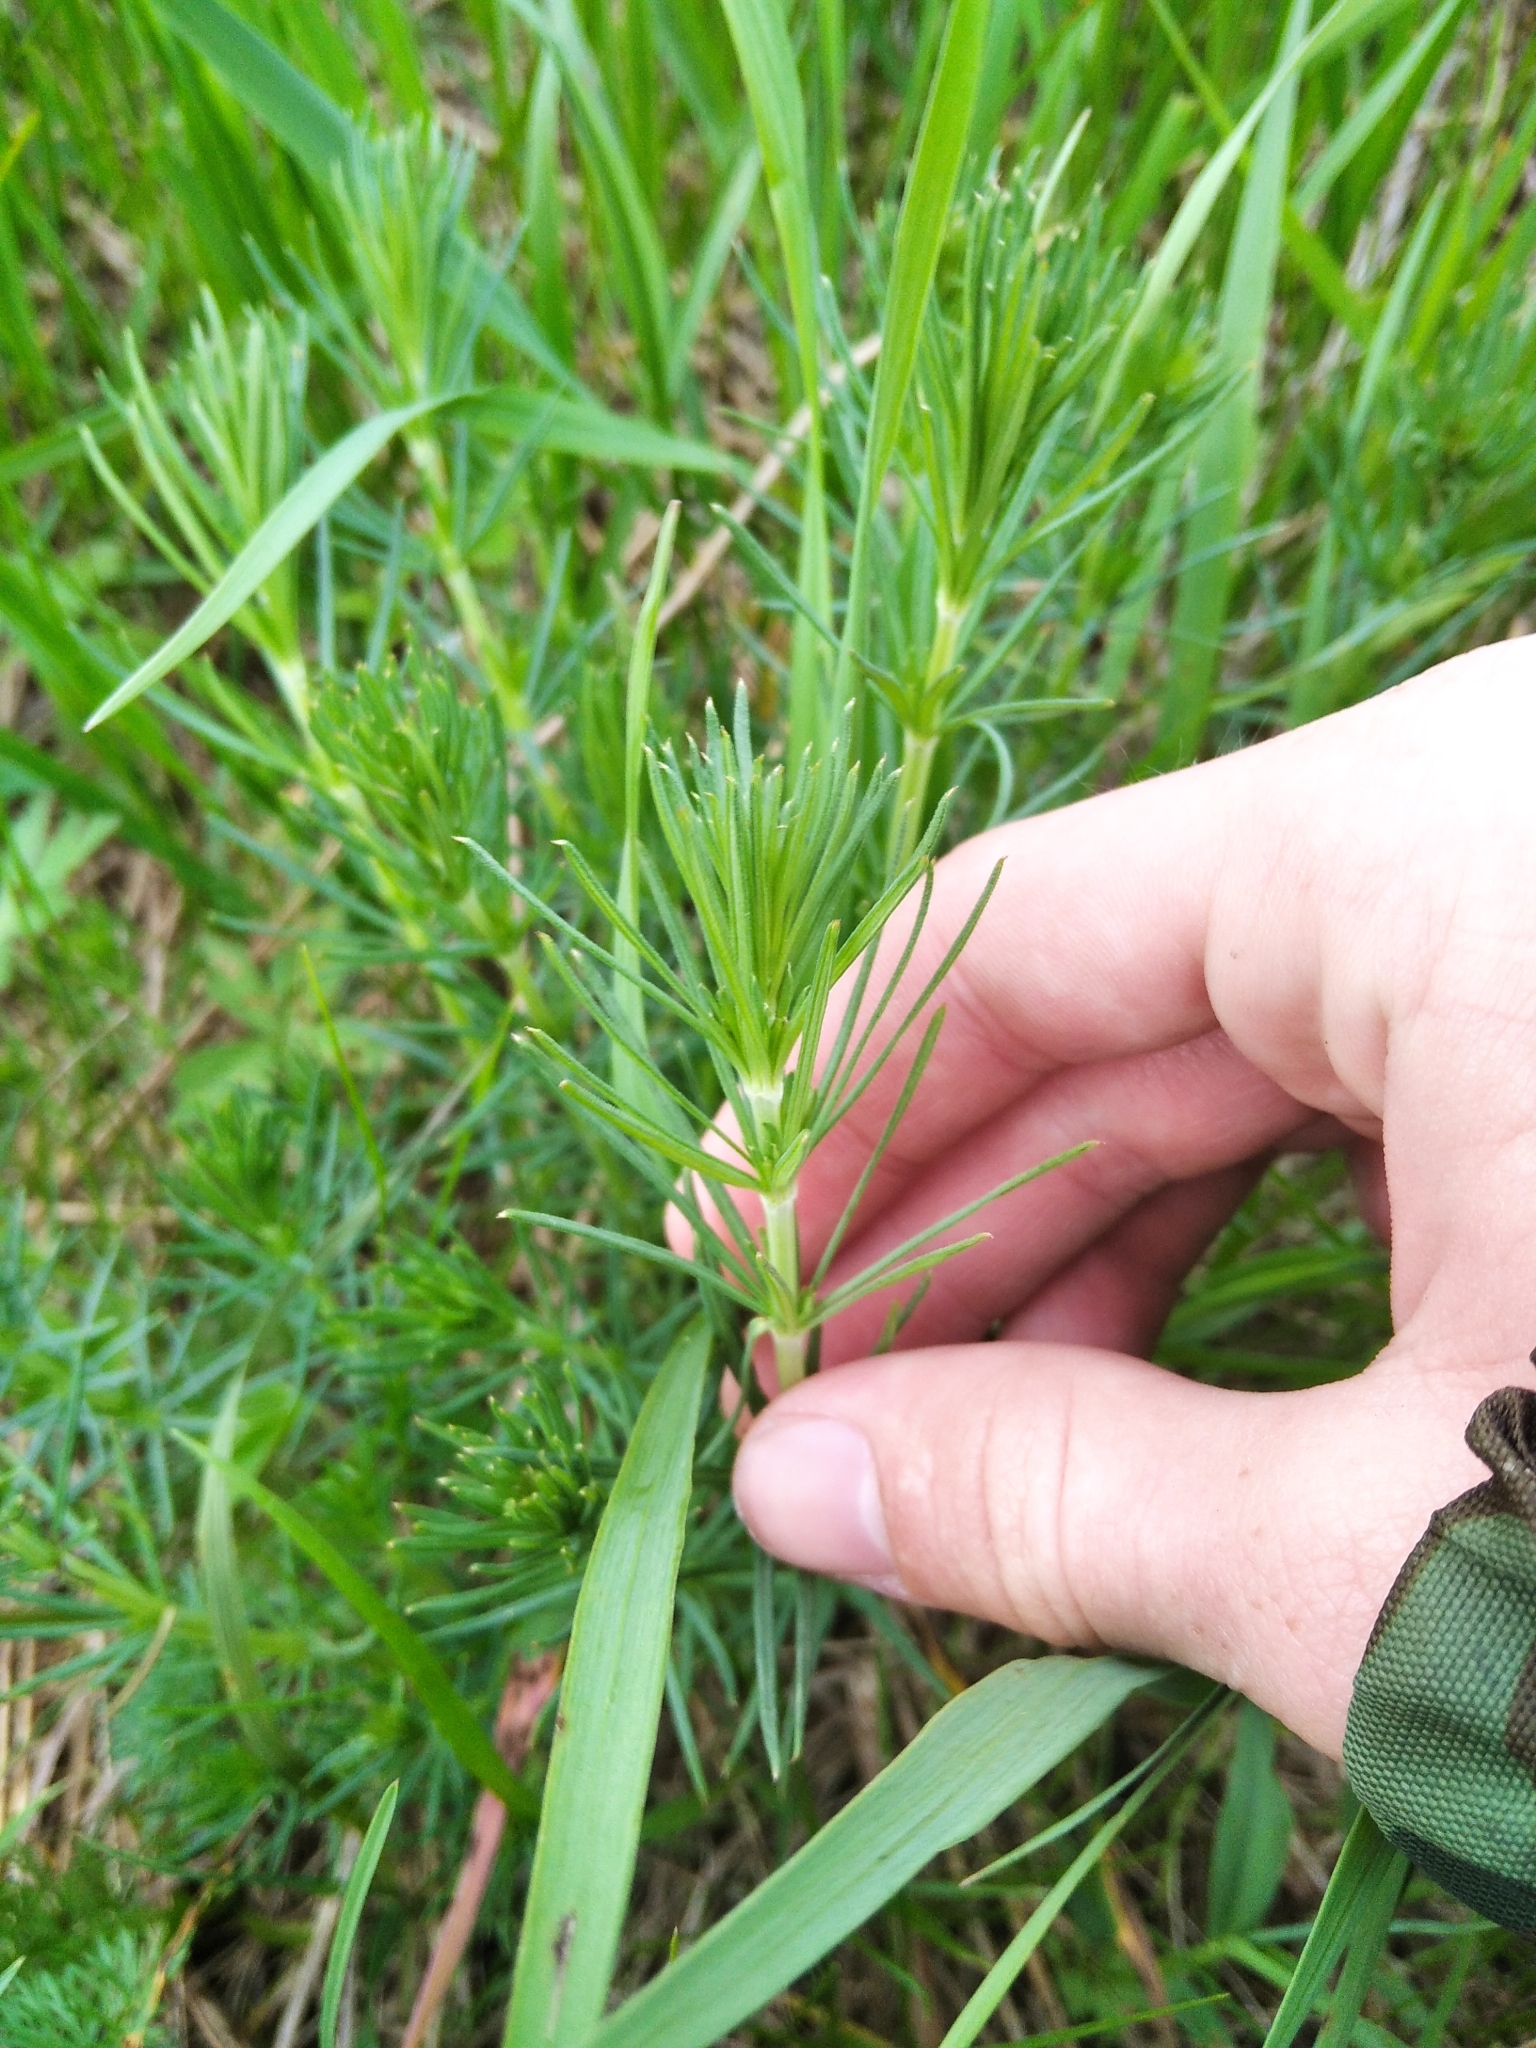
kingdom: Plantae
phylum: Tracheophyta
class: Magnoliopsida
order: Gentianales
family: Rubiaceae
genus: Galium
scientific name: Galium verum
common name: Lady's bedstraw
